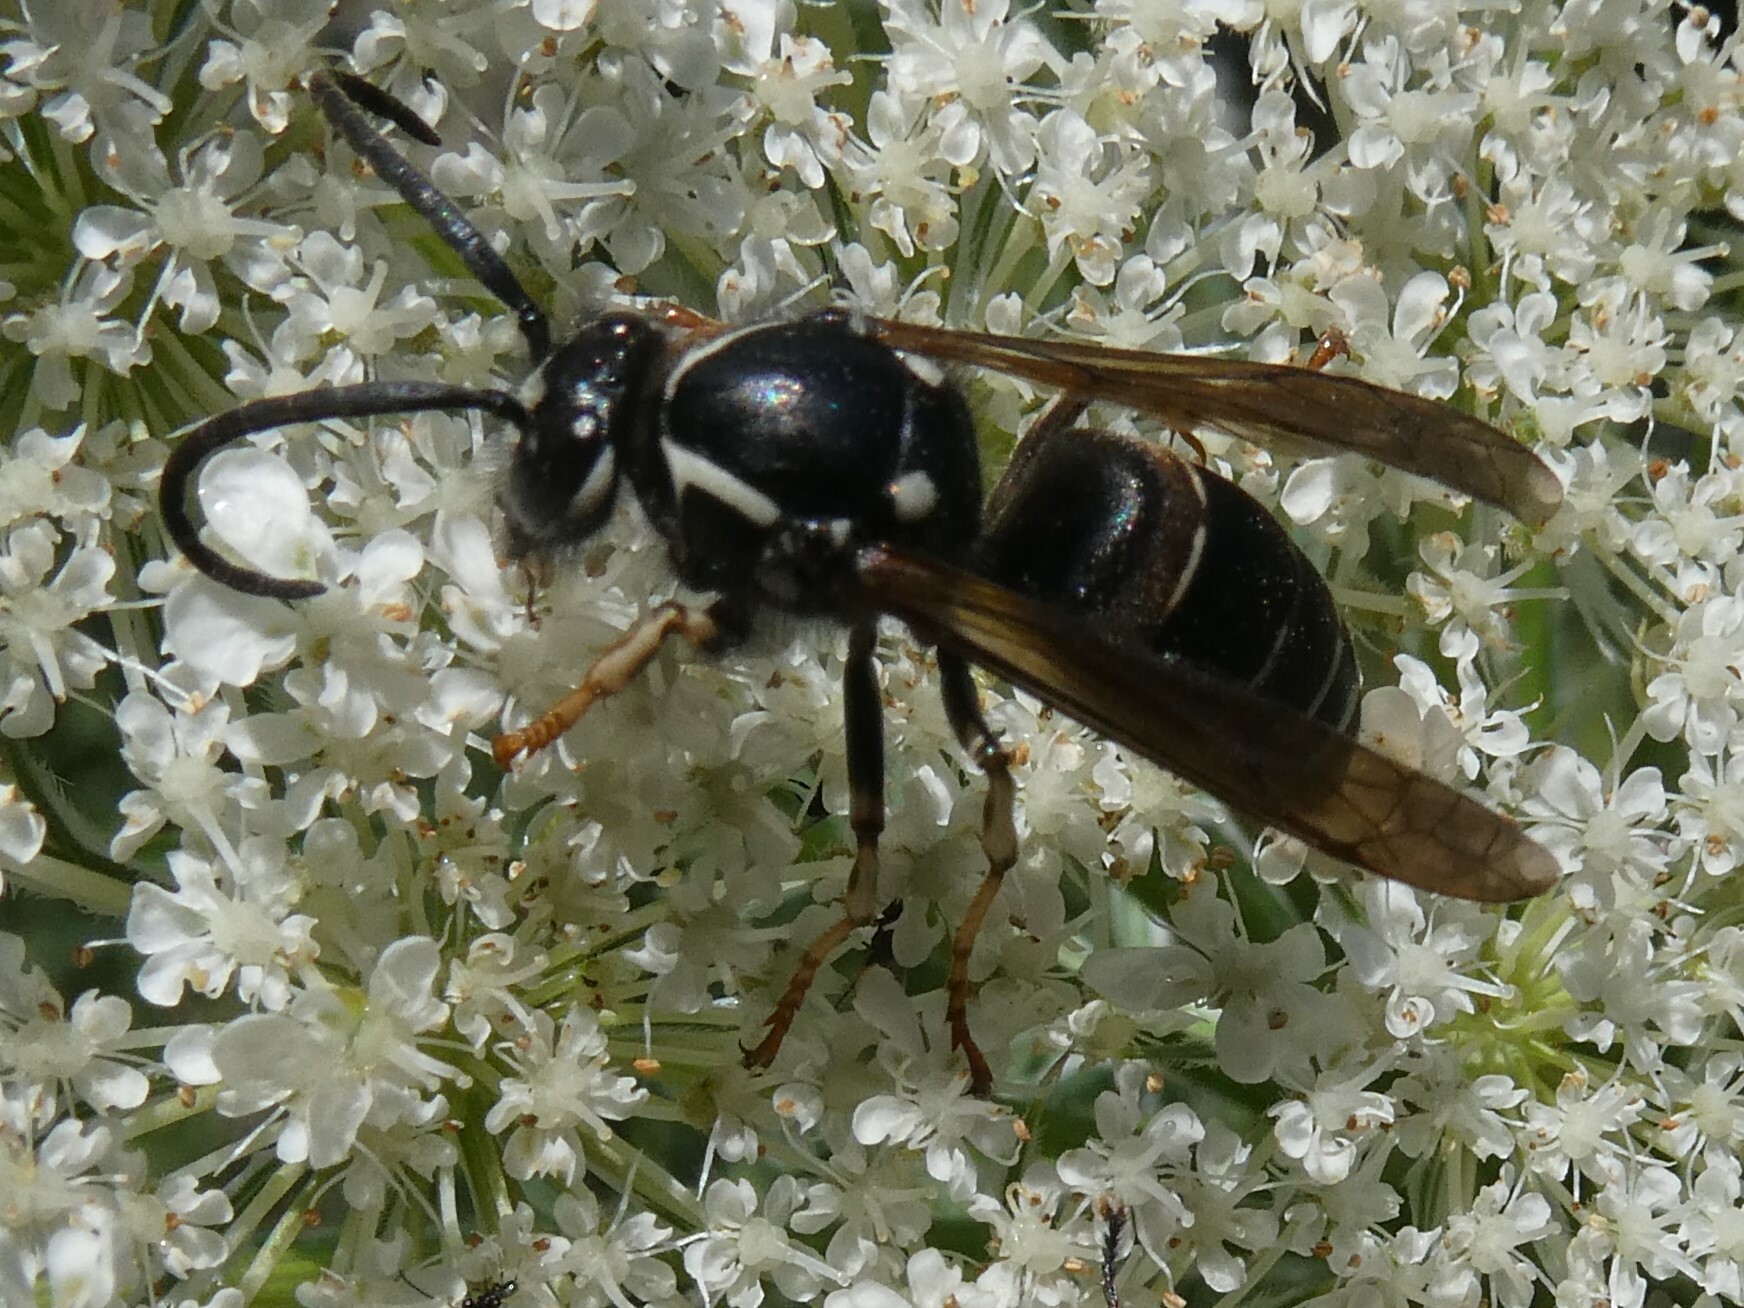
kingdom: Animalia
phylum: Arthropoda
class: Insecta
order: Hymenoptera
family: Vespidae
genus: Dolichovespula
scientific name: Dolichovespula adulterina
